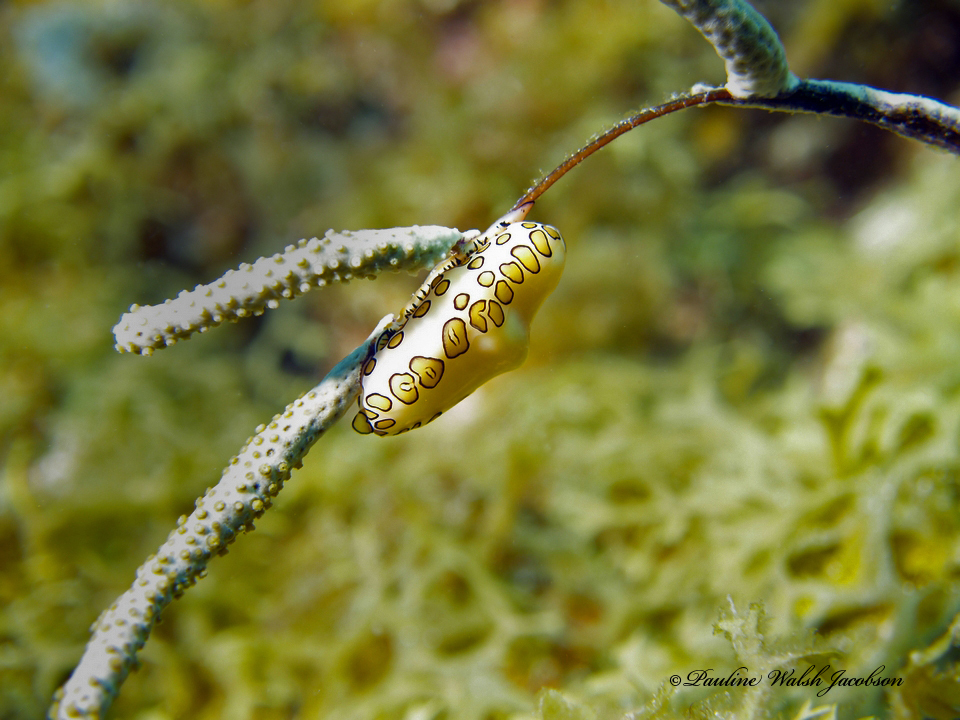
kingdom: Animalia
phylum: Mollusca
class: Gastropoda
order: Littorinimorpha
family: Ovulidae
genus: Cyphoma
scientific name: Cyphoma gibbosum
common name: Flamingo tongue
